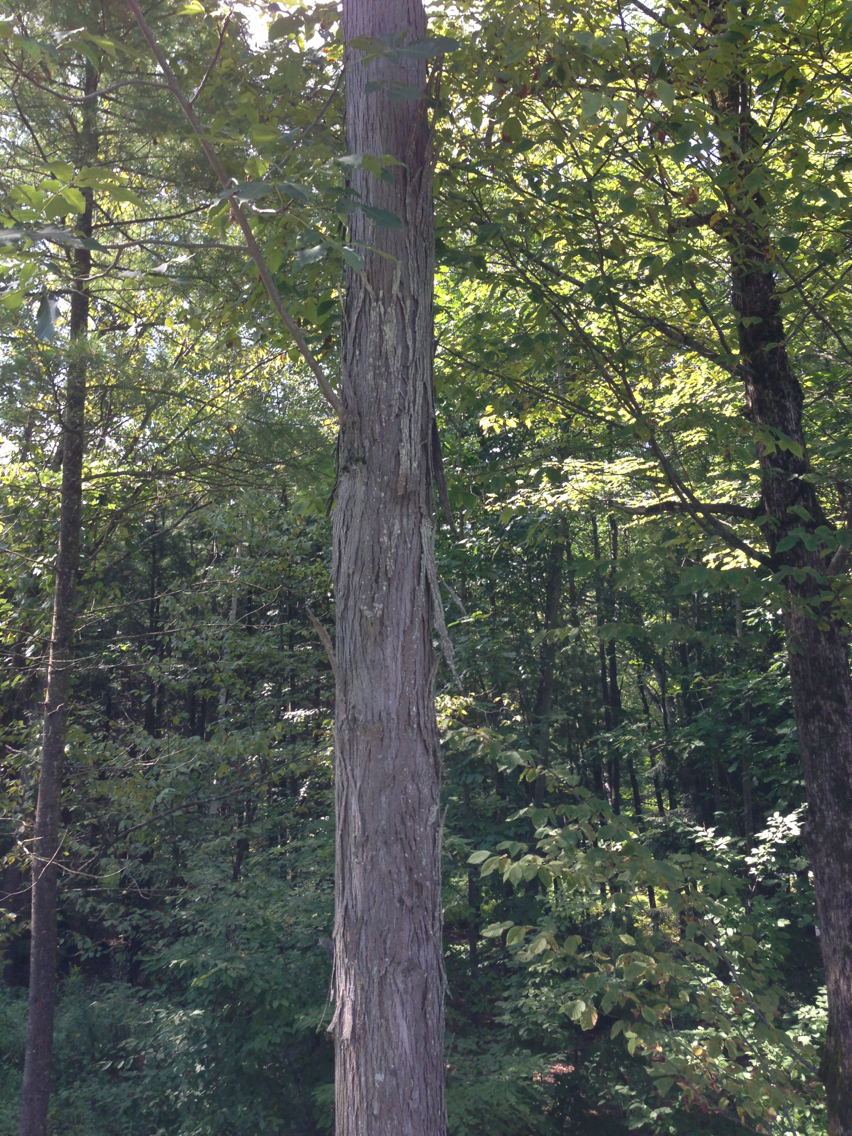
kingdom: Plantae
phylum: Tracheophyta
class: Magnoliopsida
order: Fagales
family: Juglandaceae
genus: Carya
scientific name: Carya ovata
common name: Shagbark hickory
